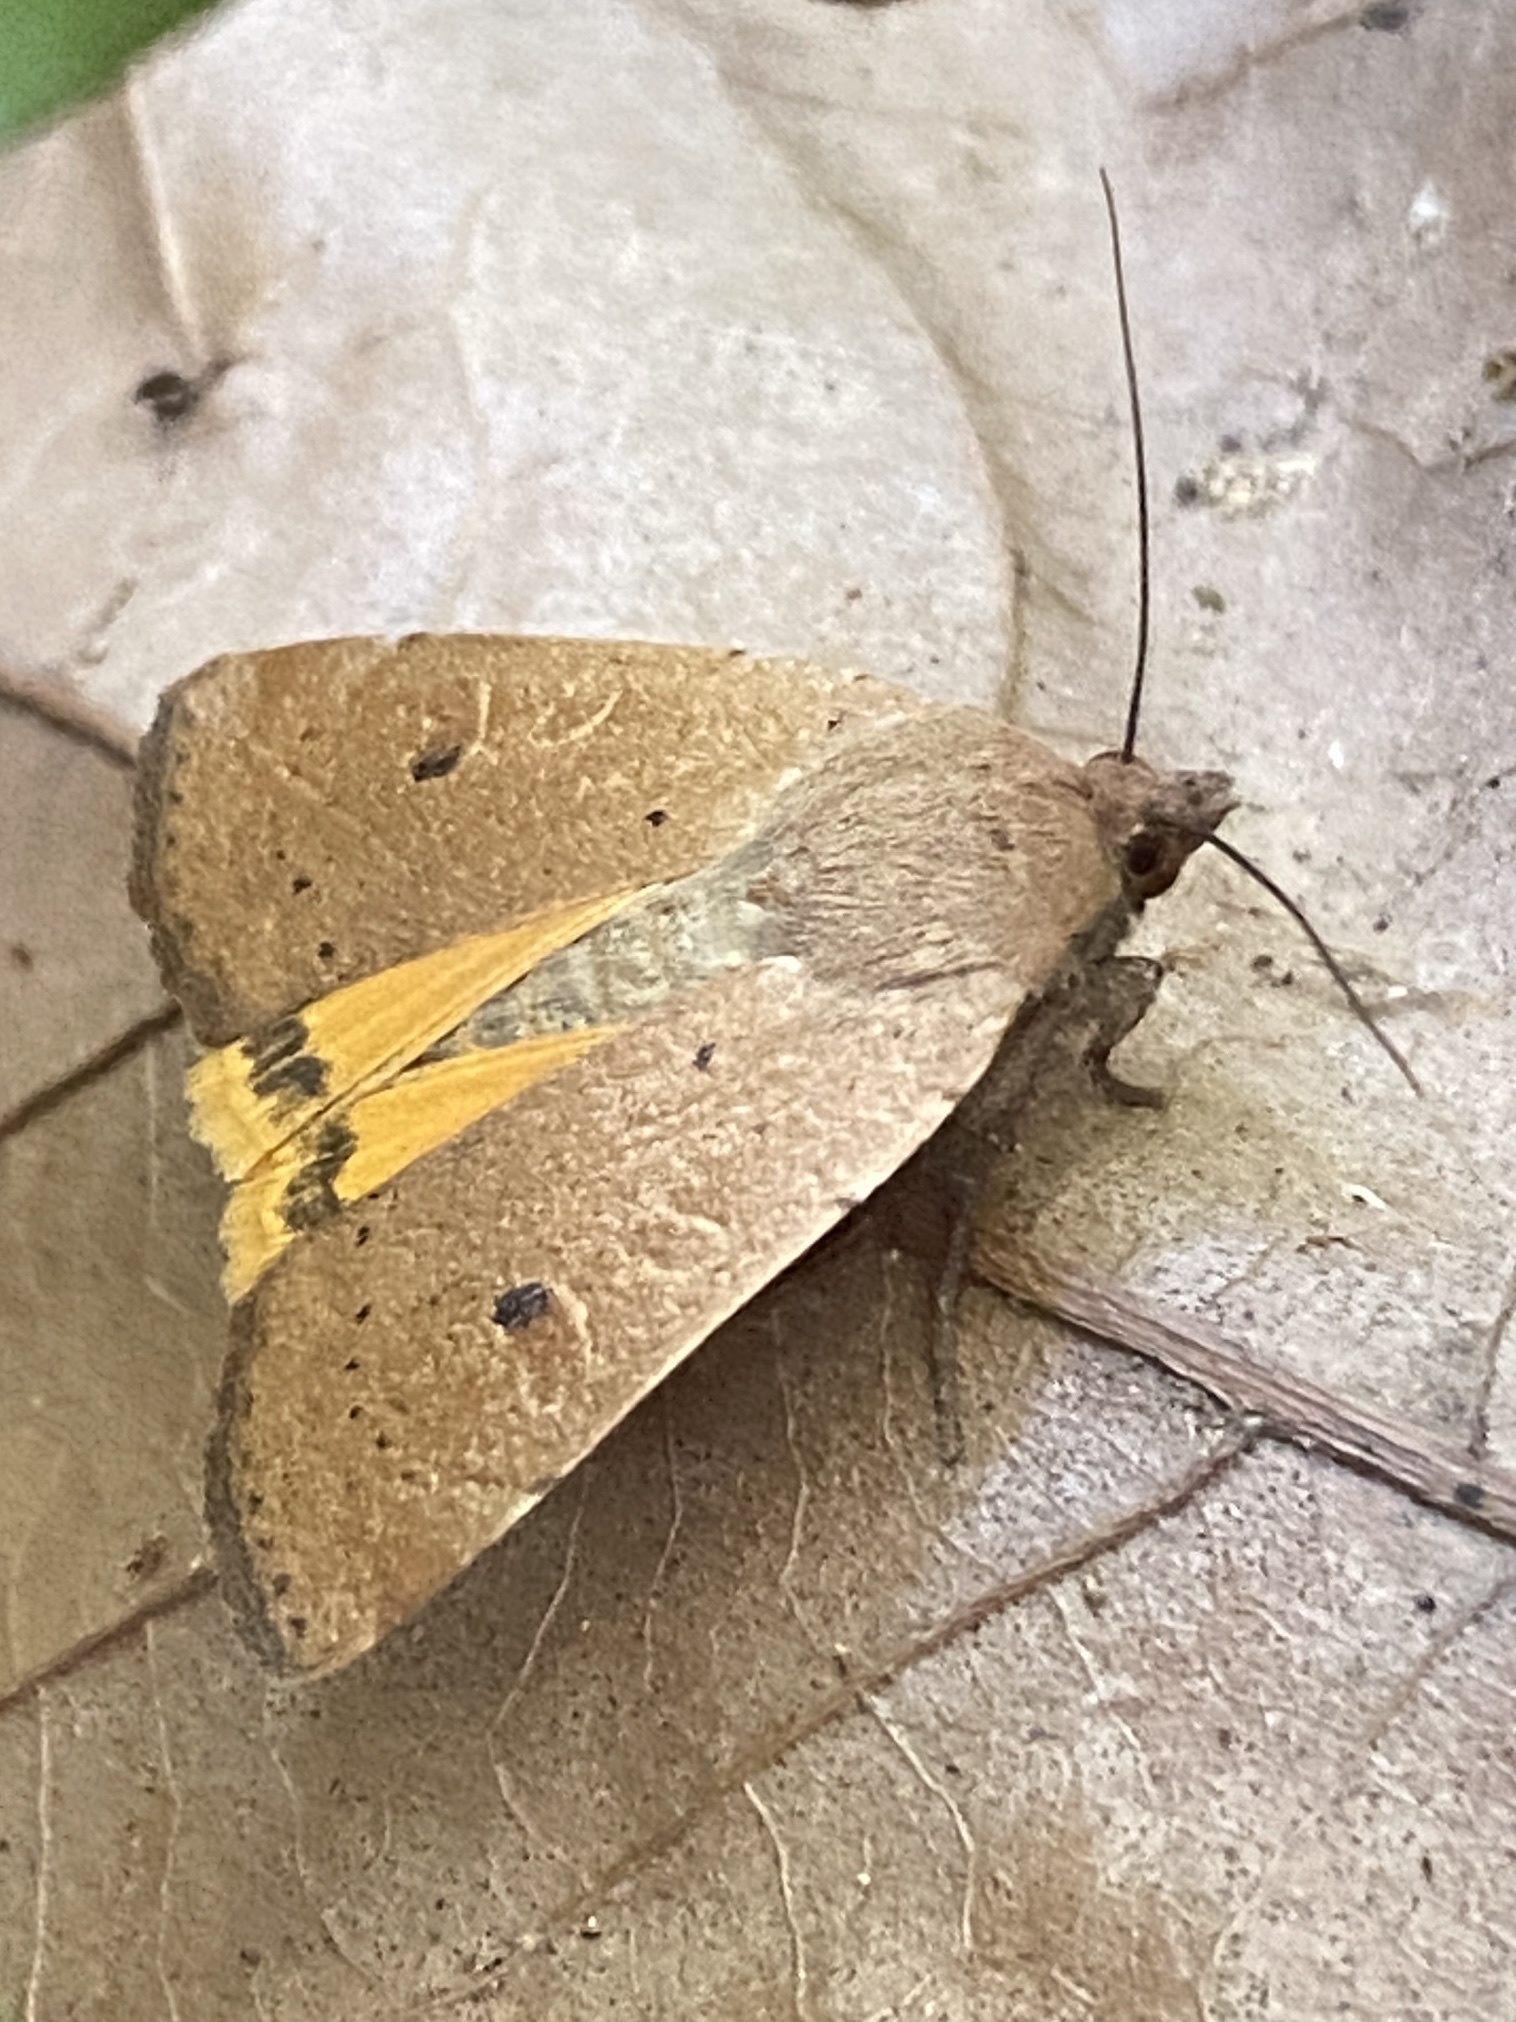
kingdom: Animalia
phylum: Arthropoda
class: Insecta
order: Lepidoptera
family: Noctuidae
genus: Noctua
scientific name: Noctua comes
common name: Lesser yellow underwing
